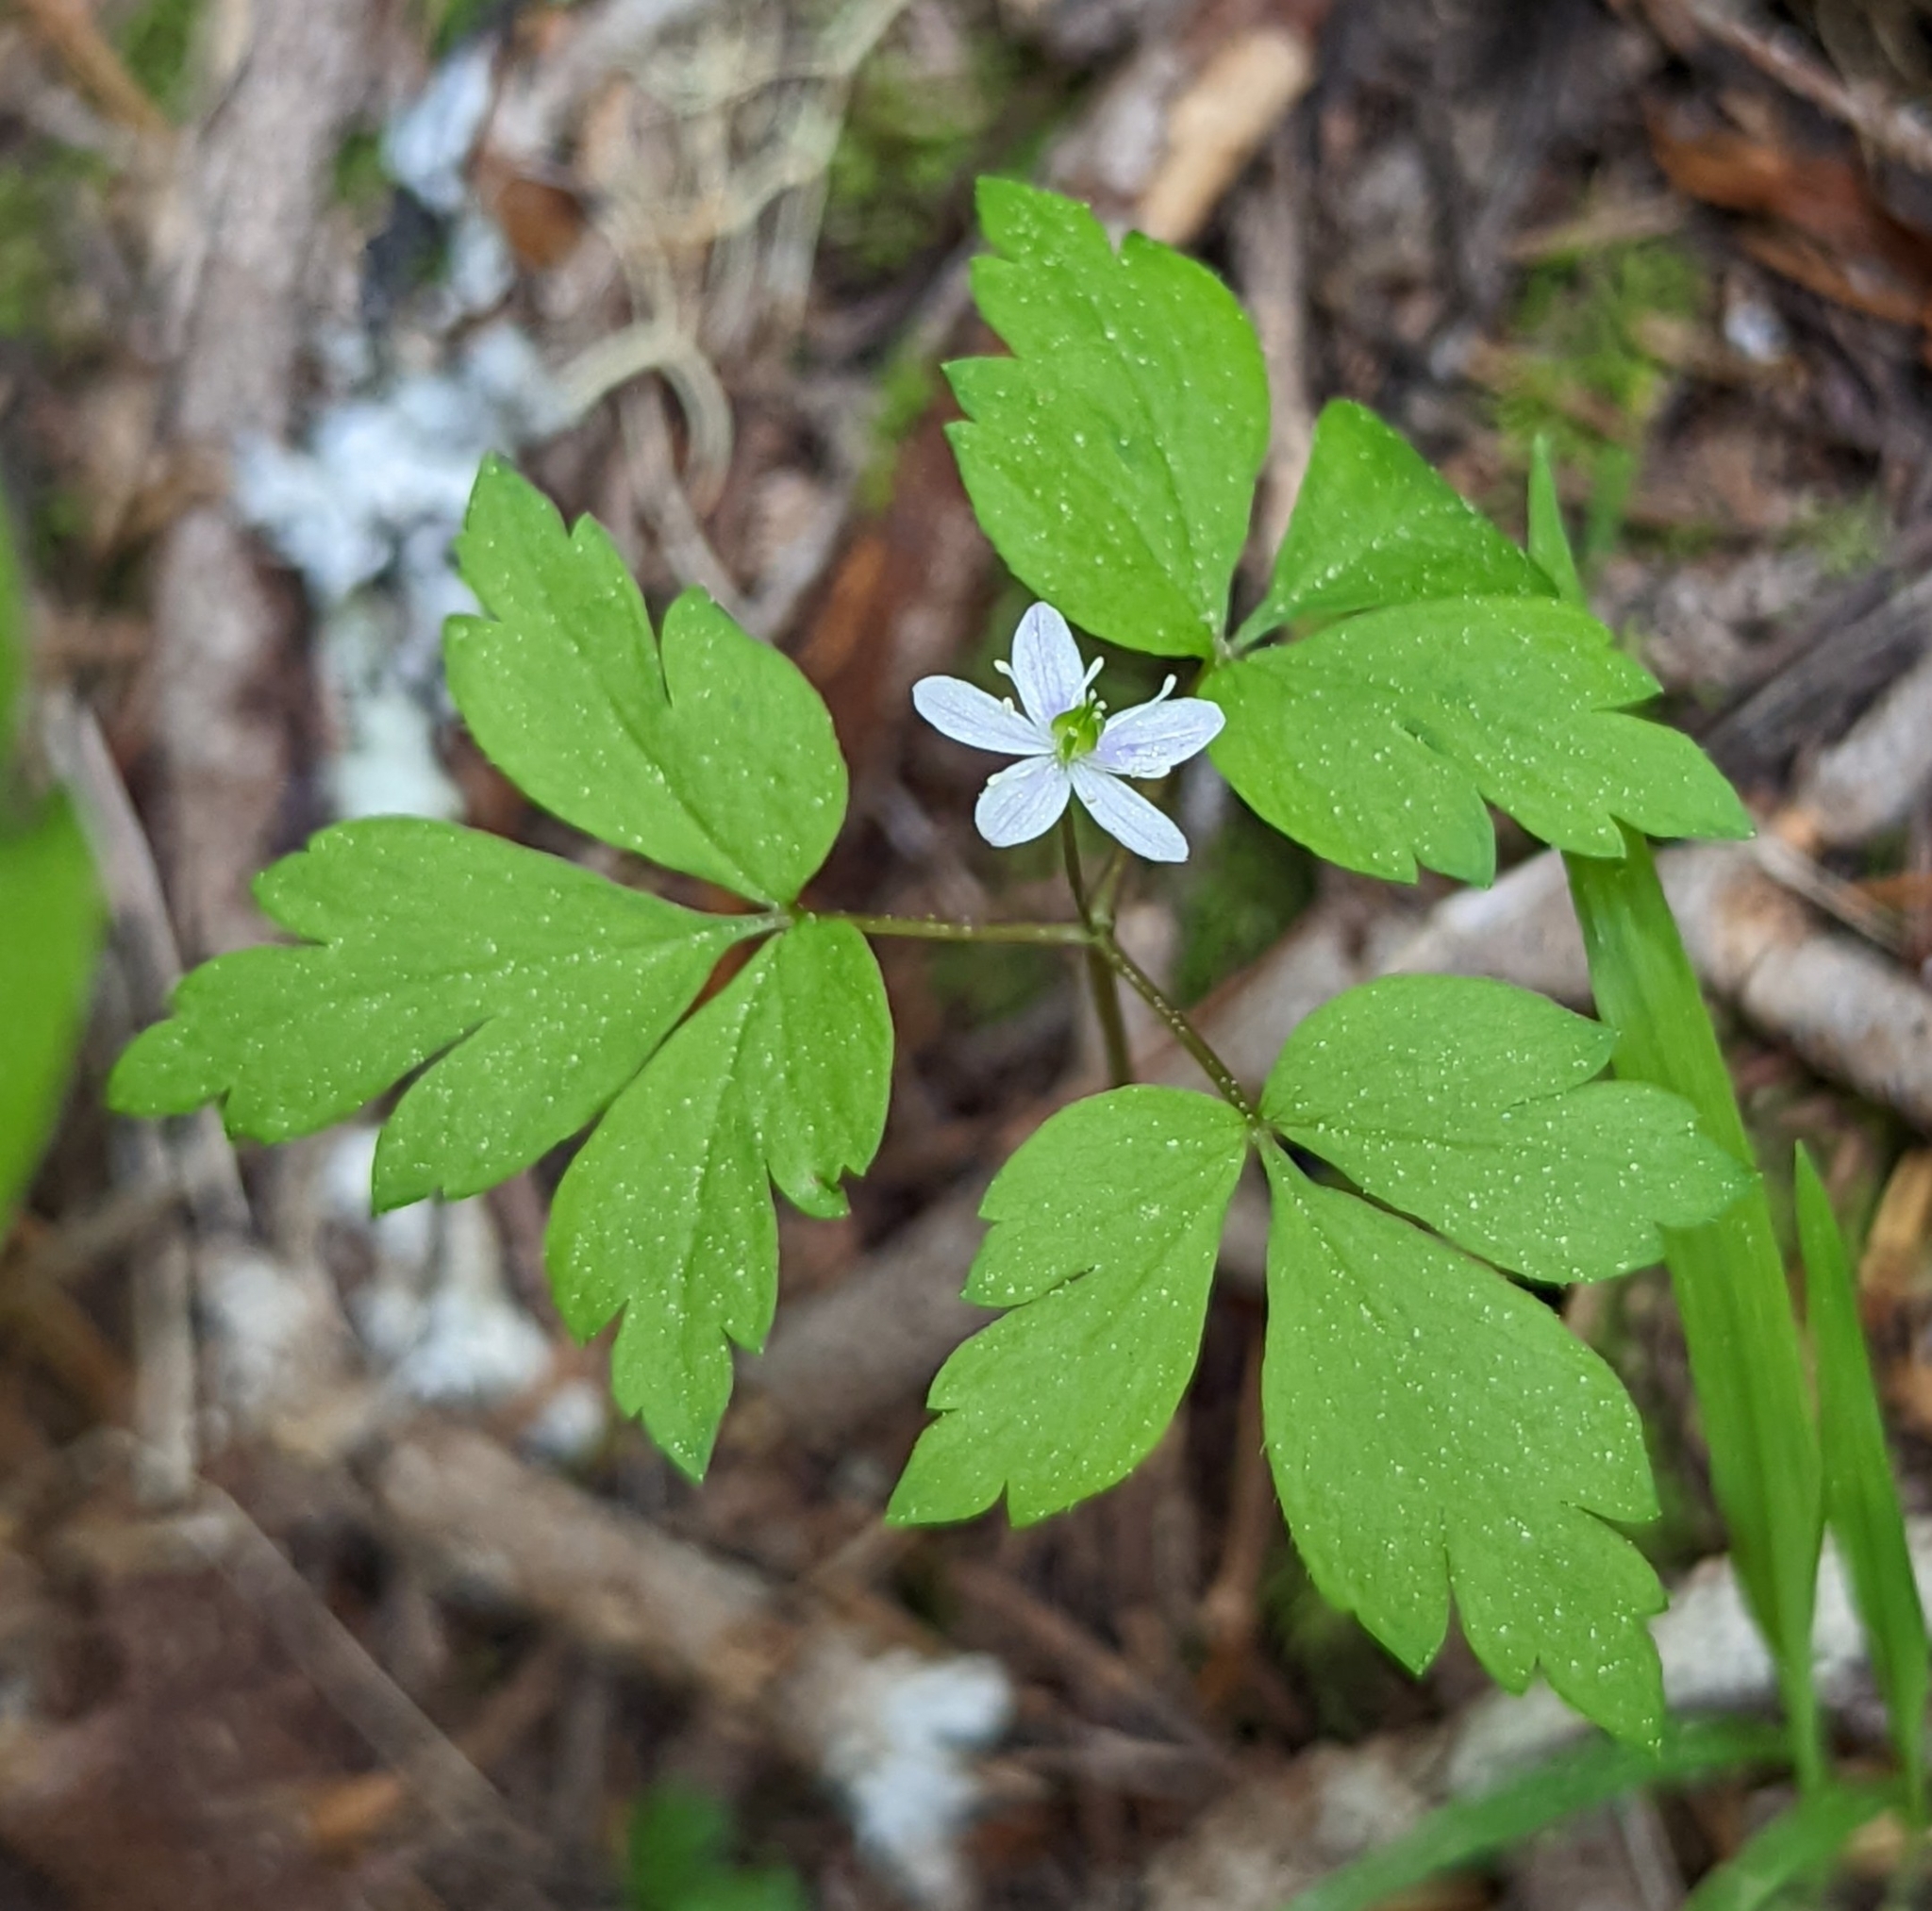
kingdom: Plantae
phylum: Tracheophyta
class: Magnoliopsida
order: Ranunculales
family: Ranunculaceae
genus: Anemone
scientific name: Anemone
